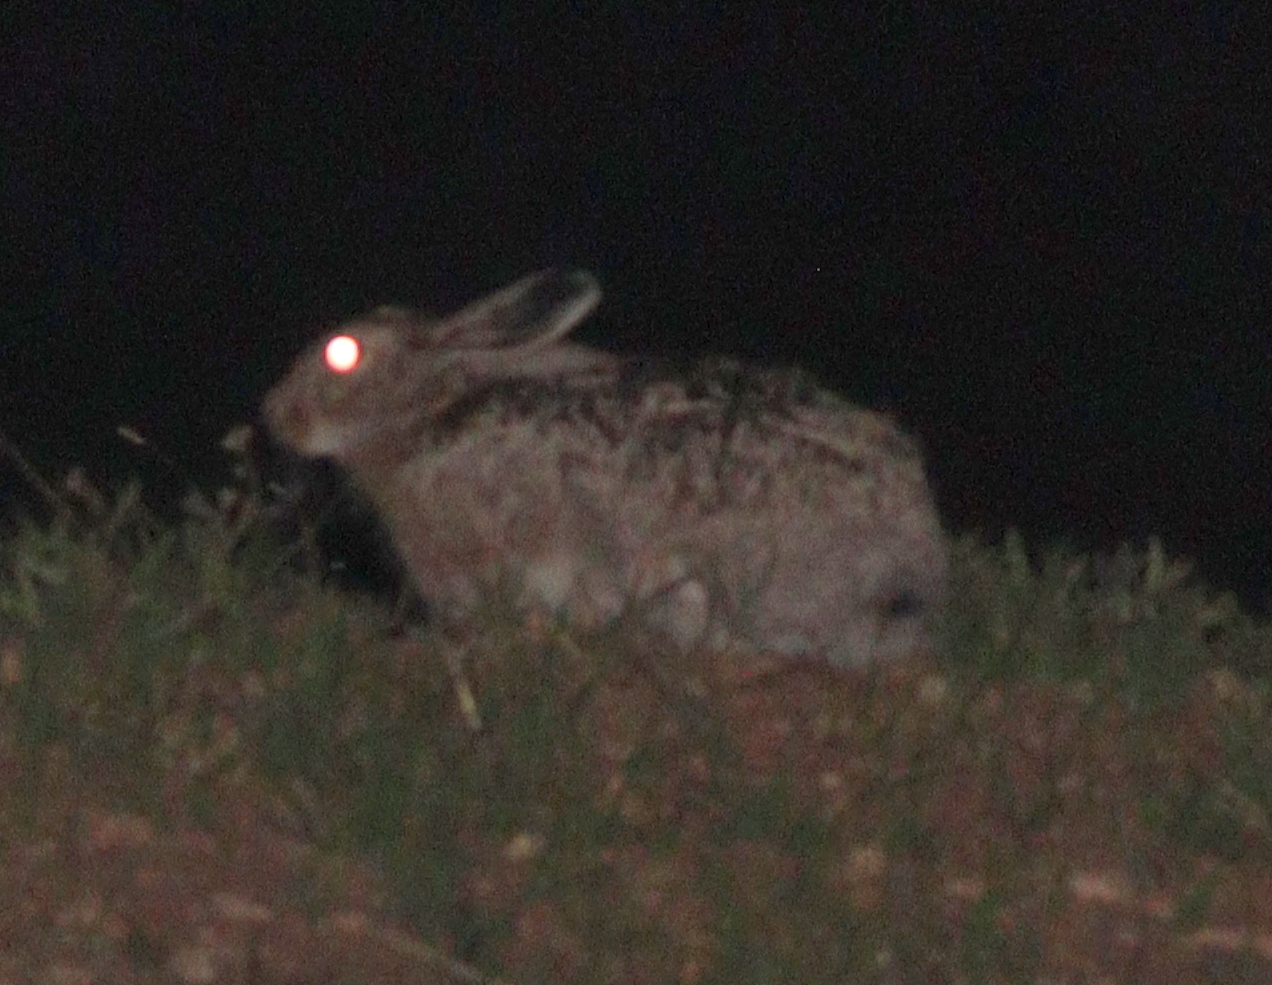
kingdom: Animalia
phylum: Chordata
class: Mammalia
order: Lagomorpha
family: Leporidae
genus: Lepus
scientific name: Lepus europaeus
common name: European hare
